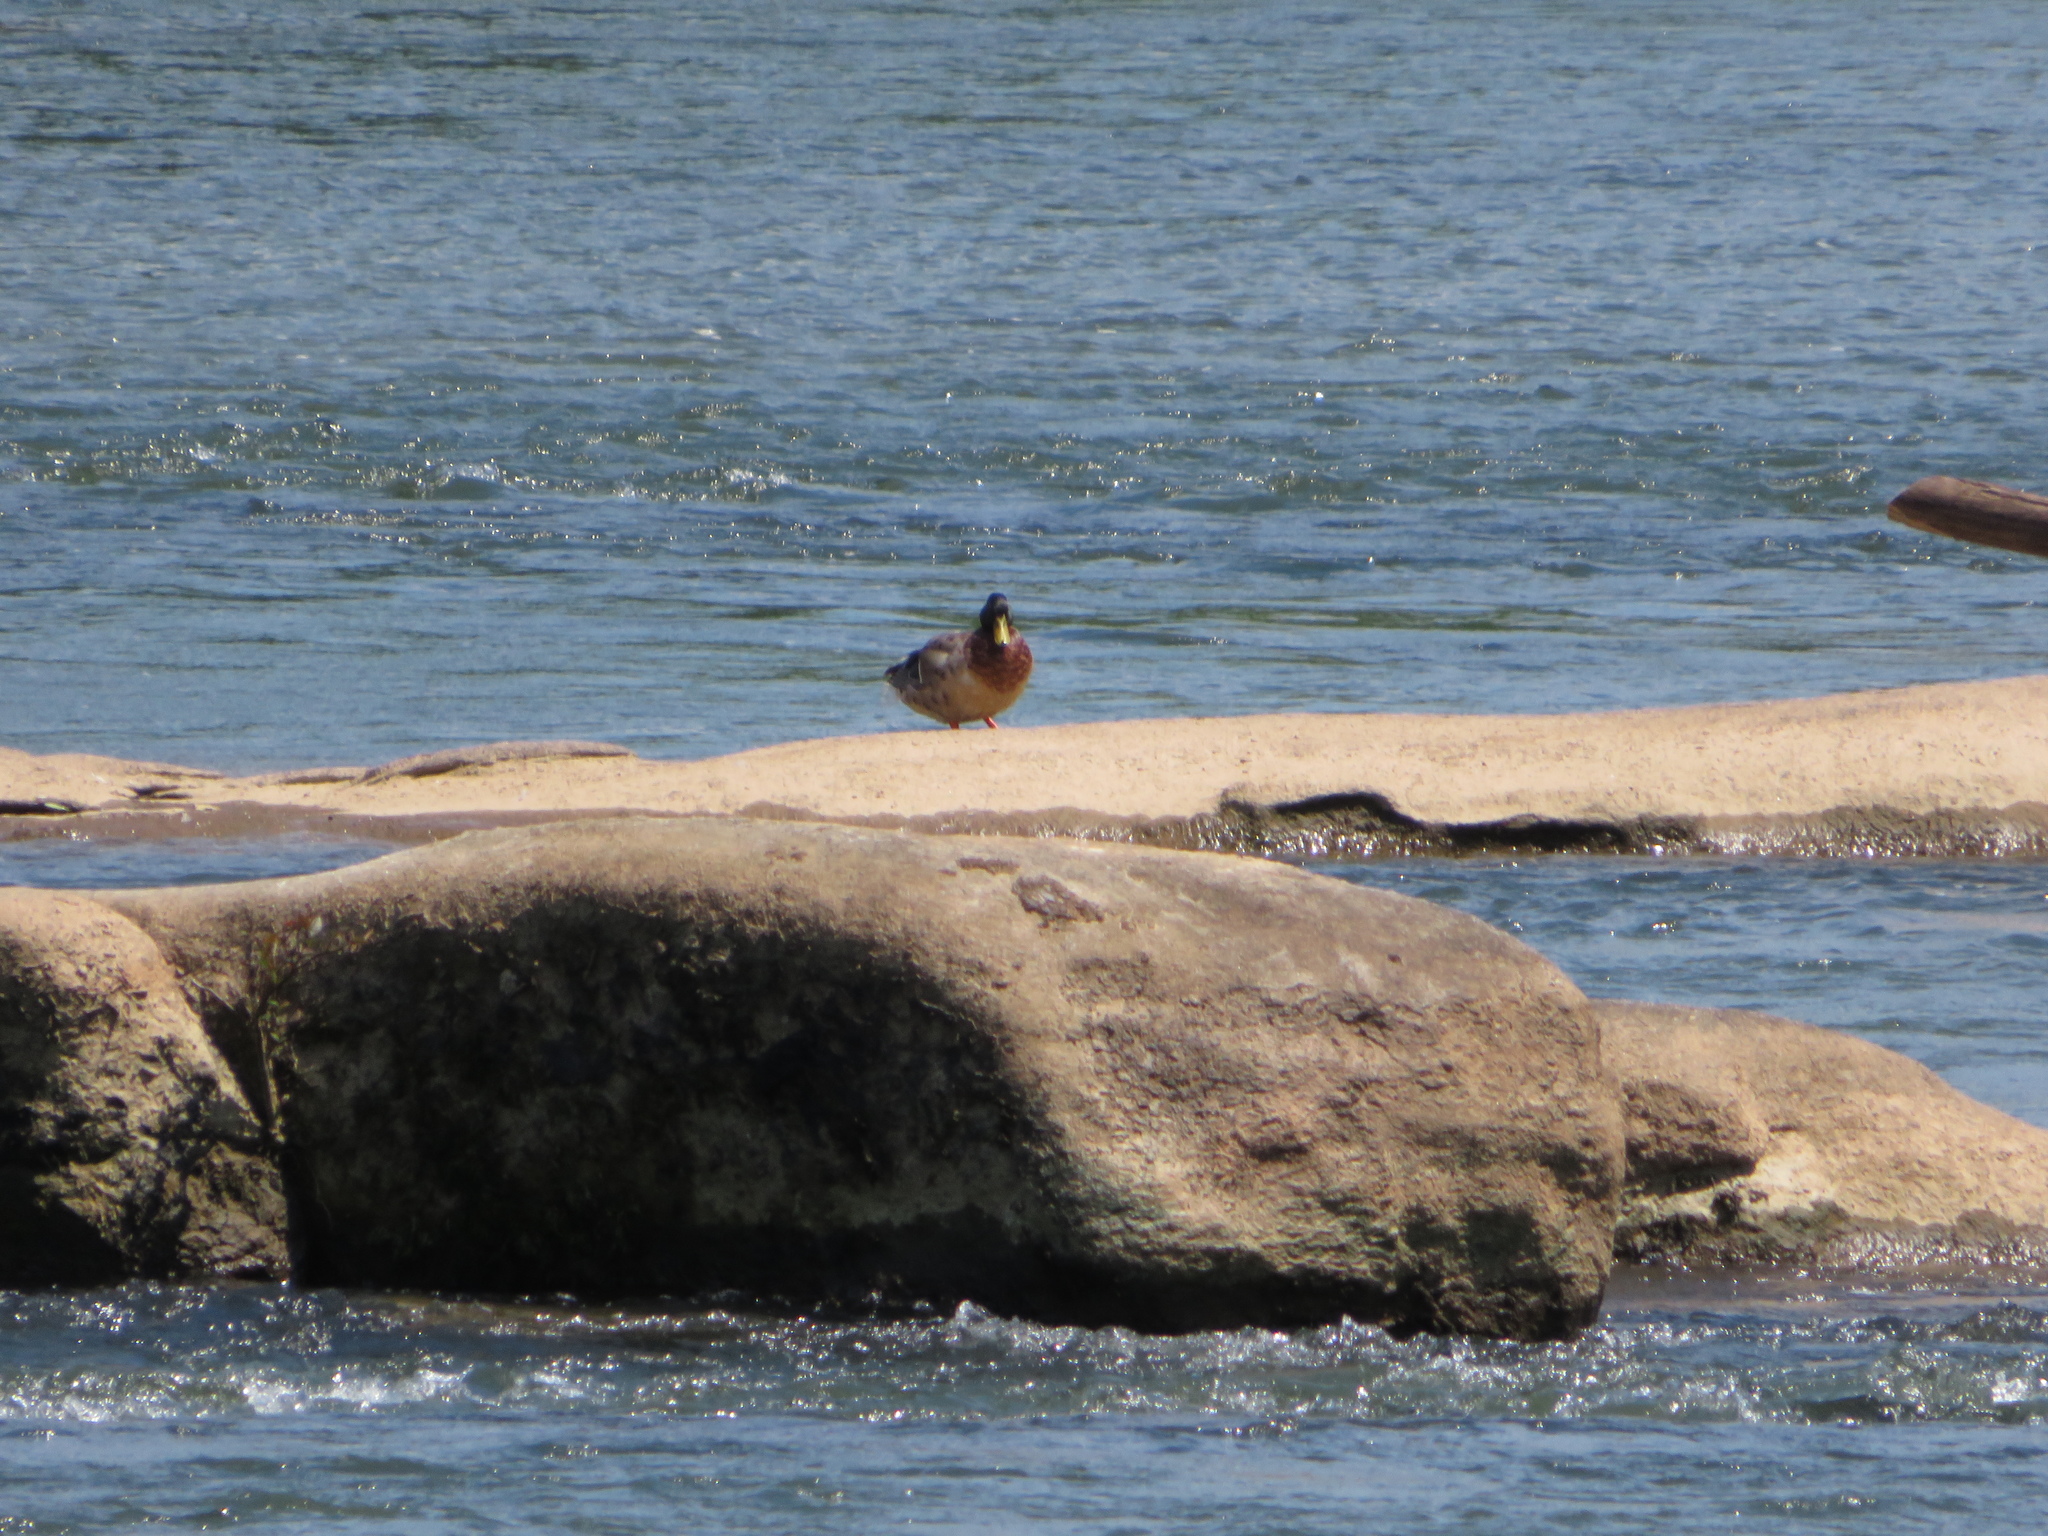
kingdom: Animalia
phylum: Chordata
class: Aves
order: Anseriformes
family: Anatidae
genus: Anas
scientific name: Anas platyrhynchos
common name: Mallard
